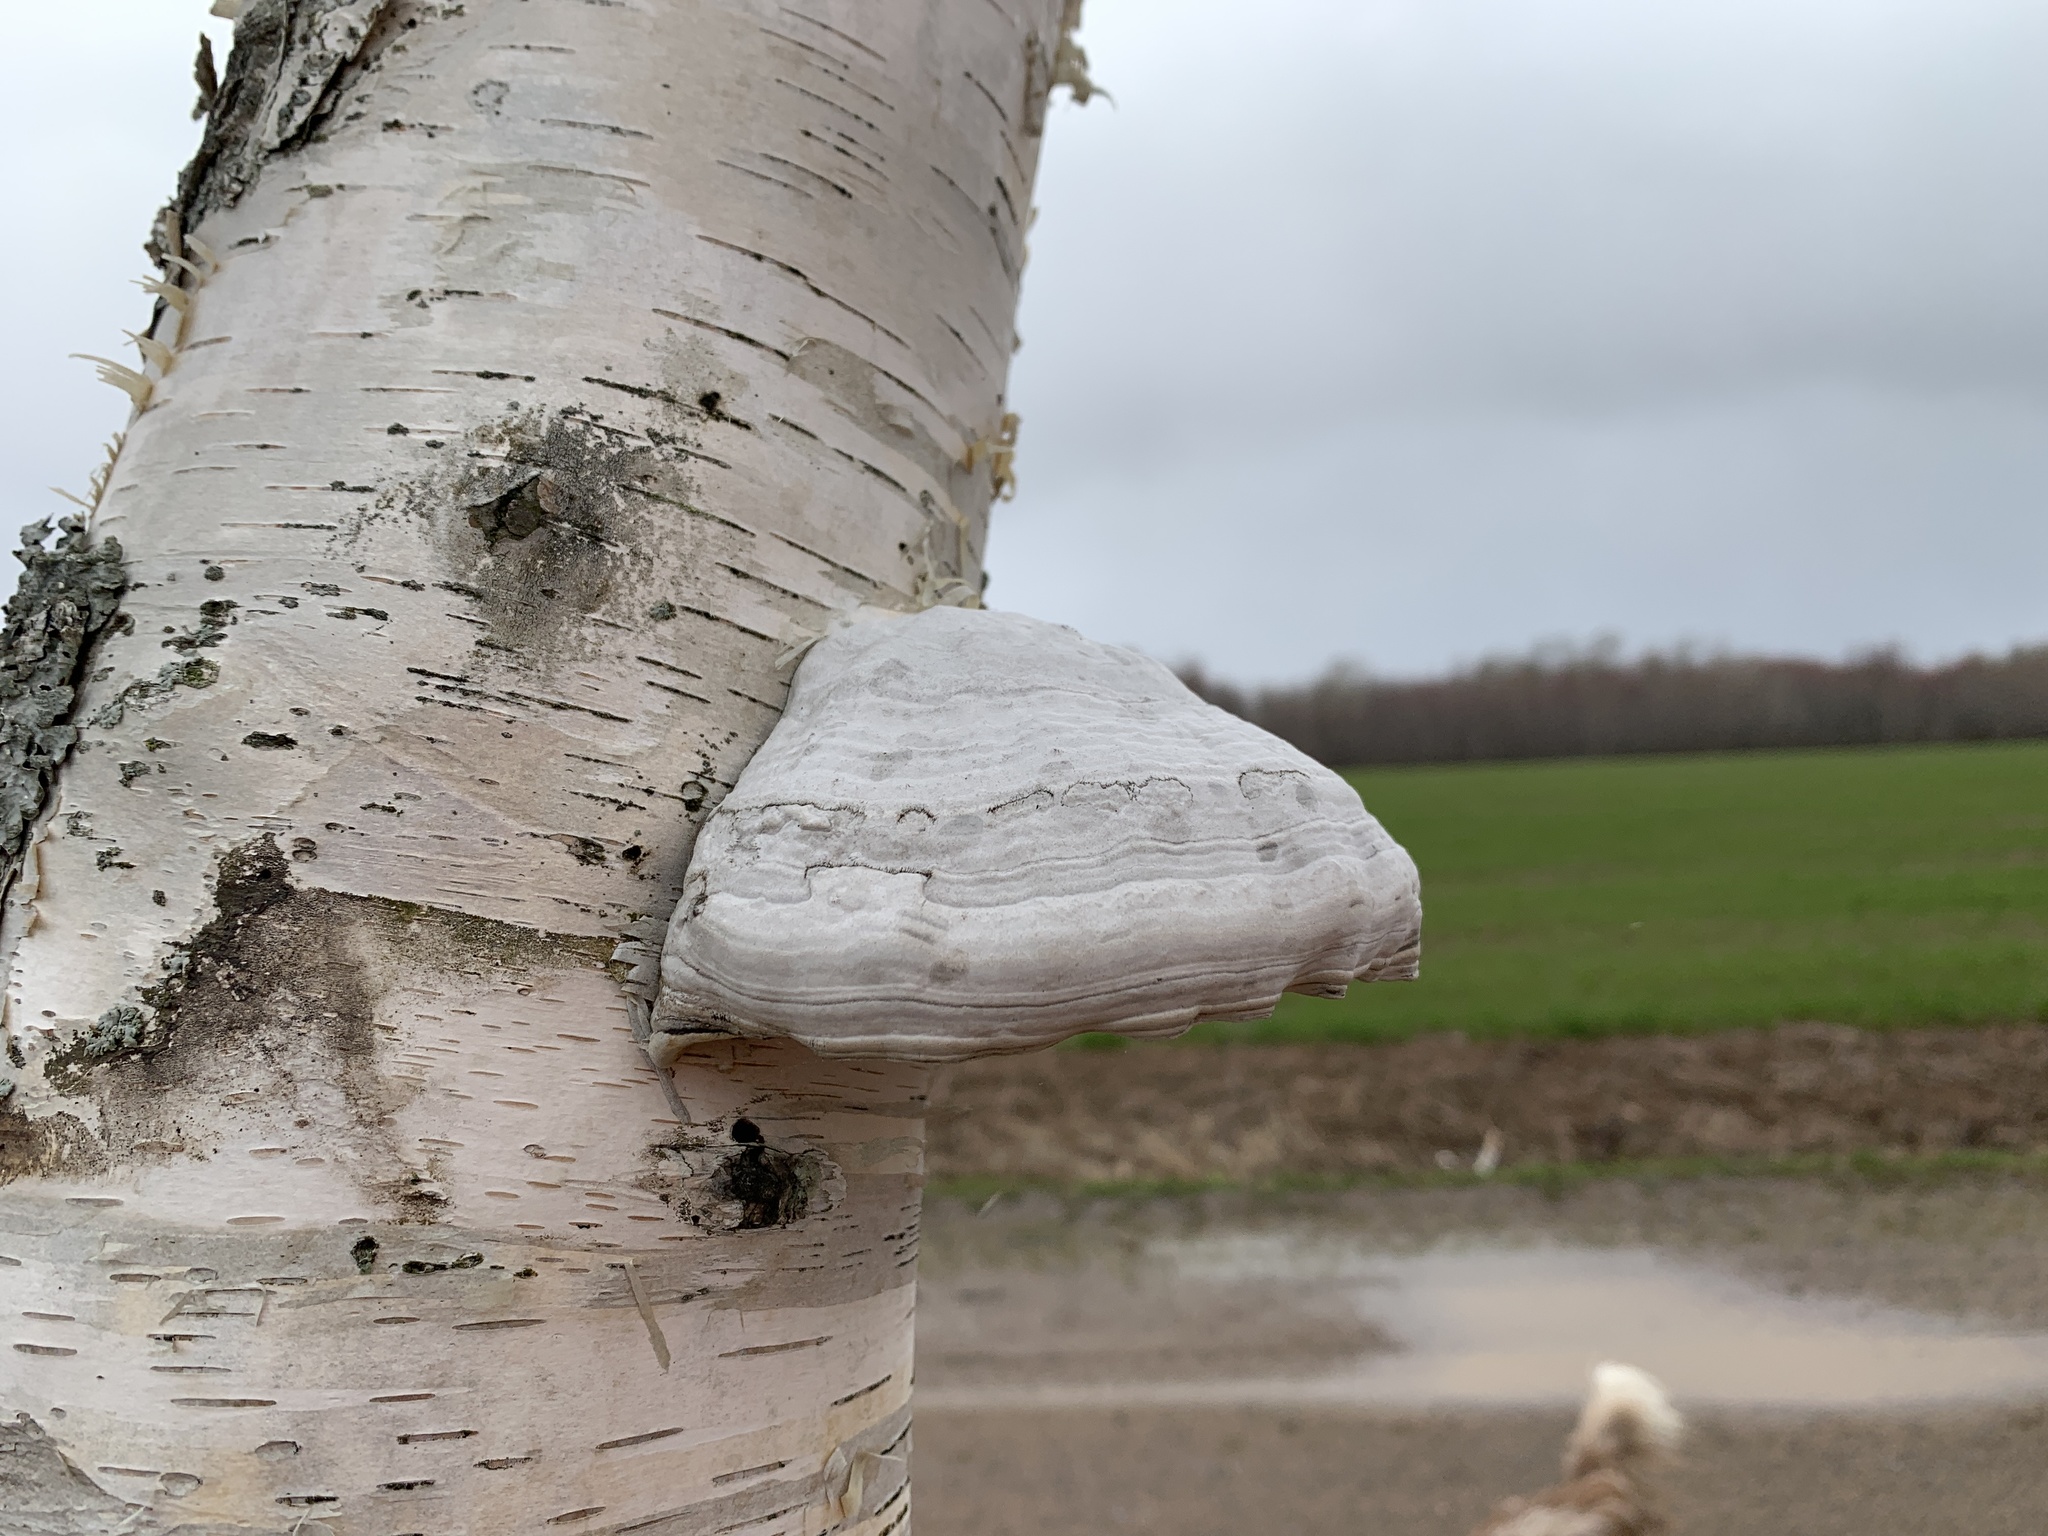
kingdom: Fungi
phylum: Basidiomycota
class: Agaricomycetes
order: Polyporales
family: Polyporaceae
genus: Fomes
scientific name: Fomes fomentarius
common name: Hoof fungus
